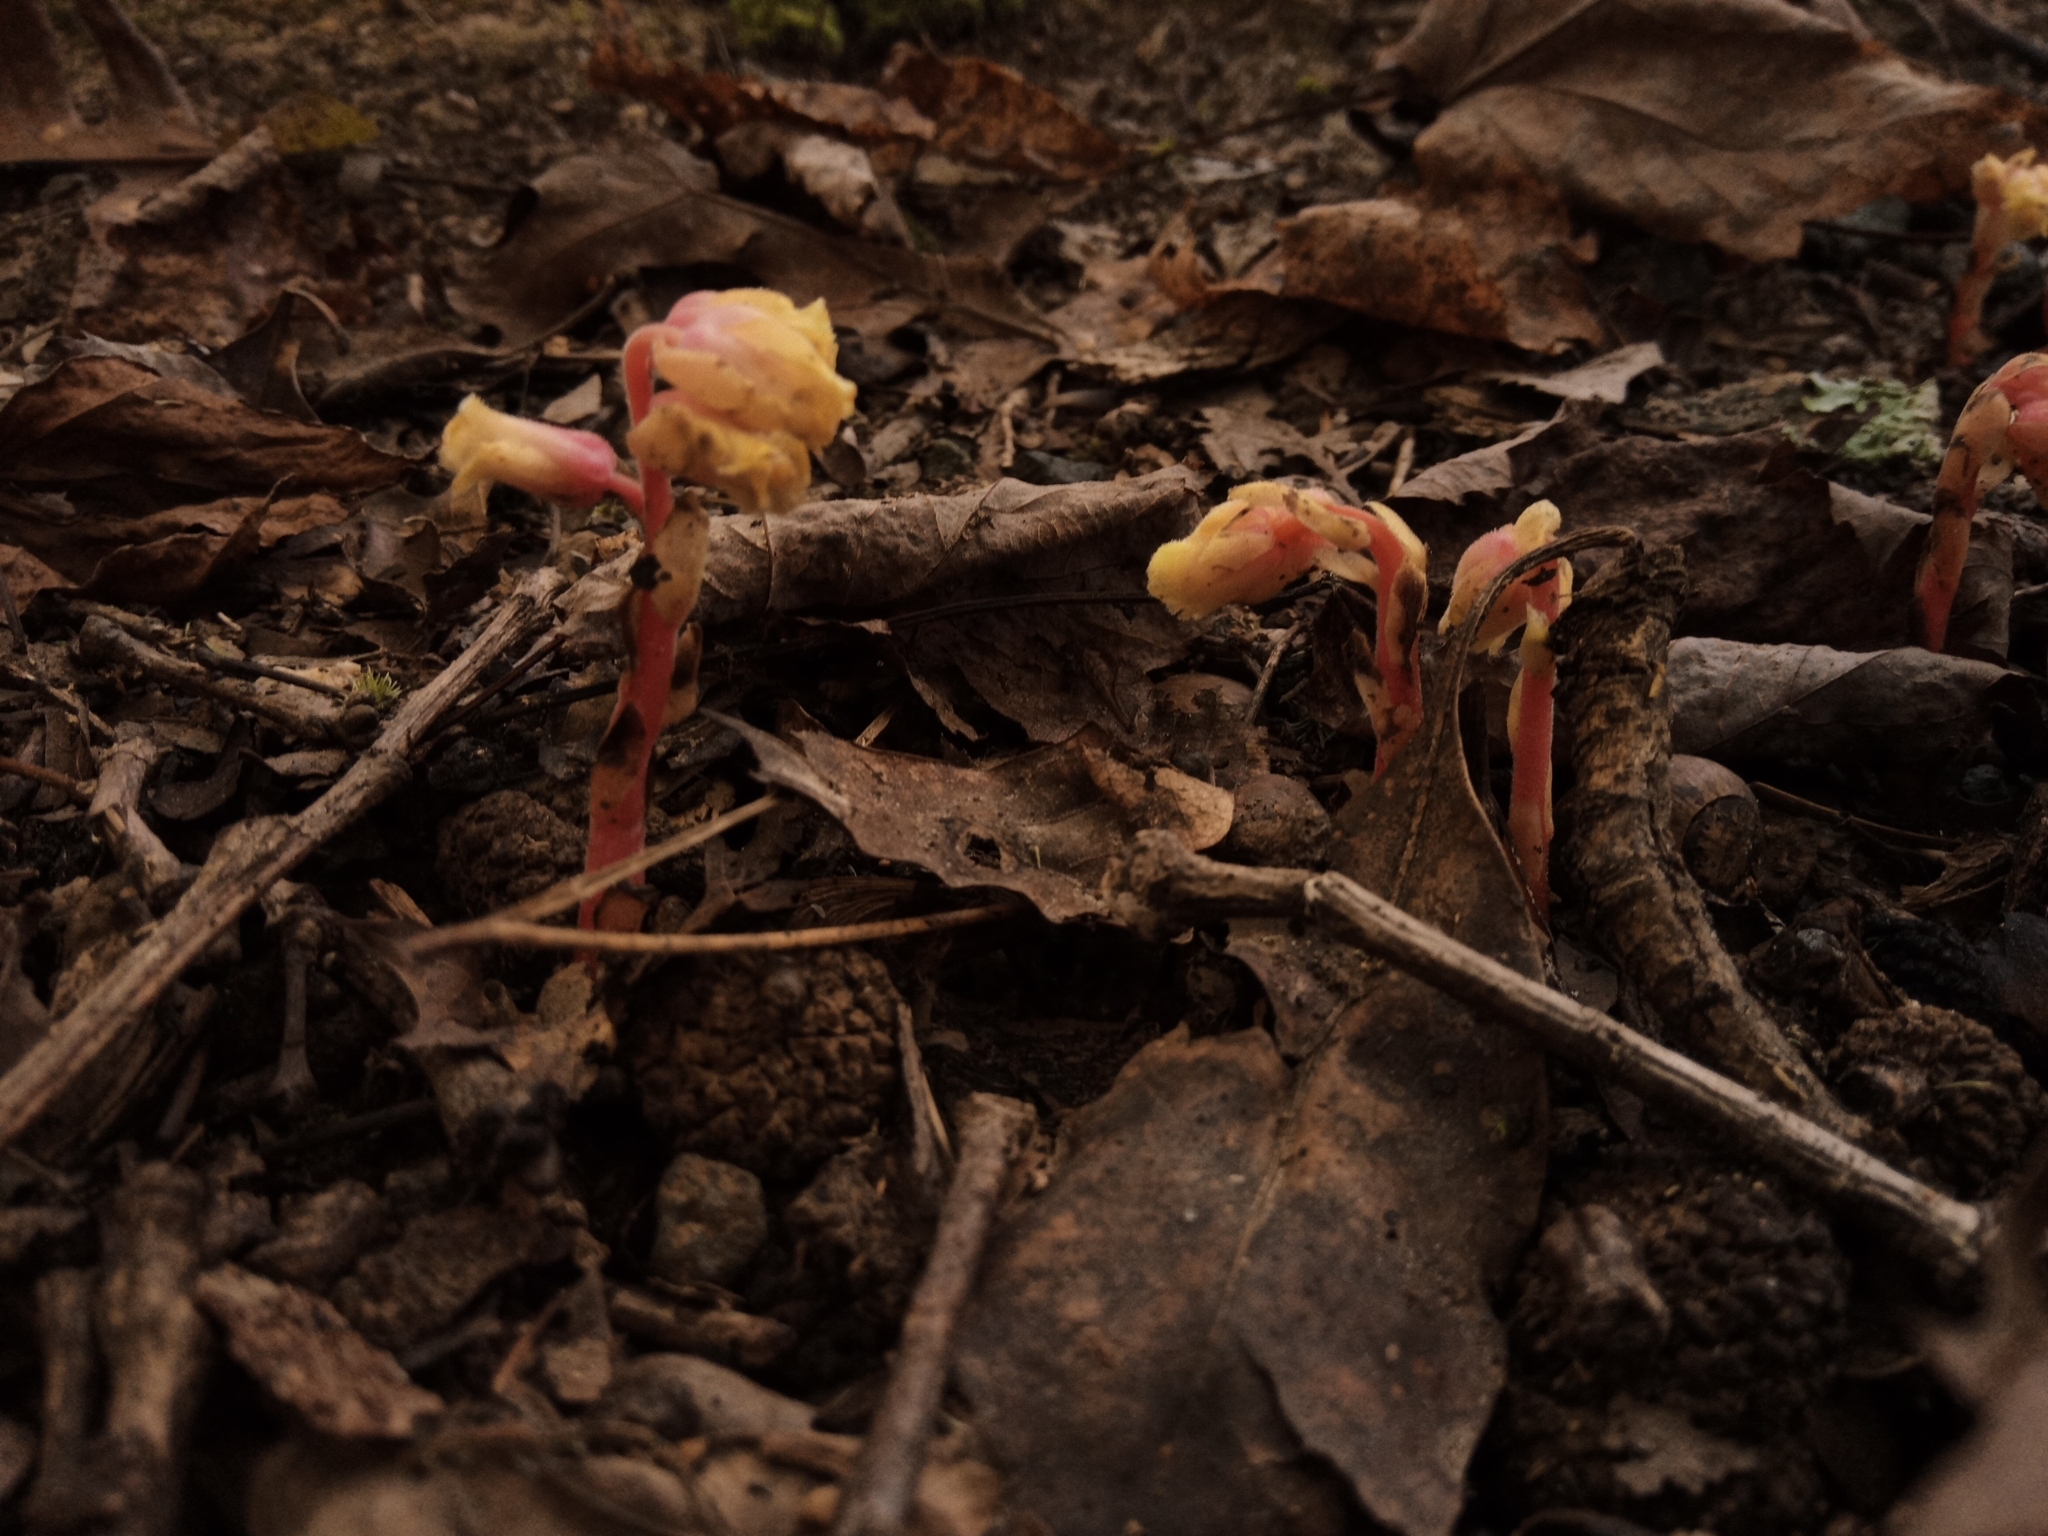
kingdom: Plantae
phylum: Tracheophyta
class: Magnoliopsida
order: Ericales
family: Ericaceae
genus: Hypopitys
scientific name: Hypopitys monotropa
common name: Yellow bird's-nest
